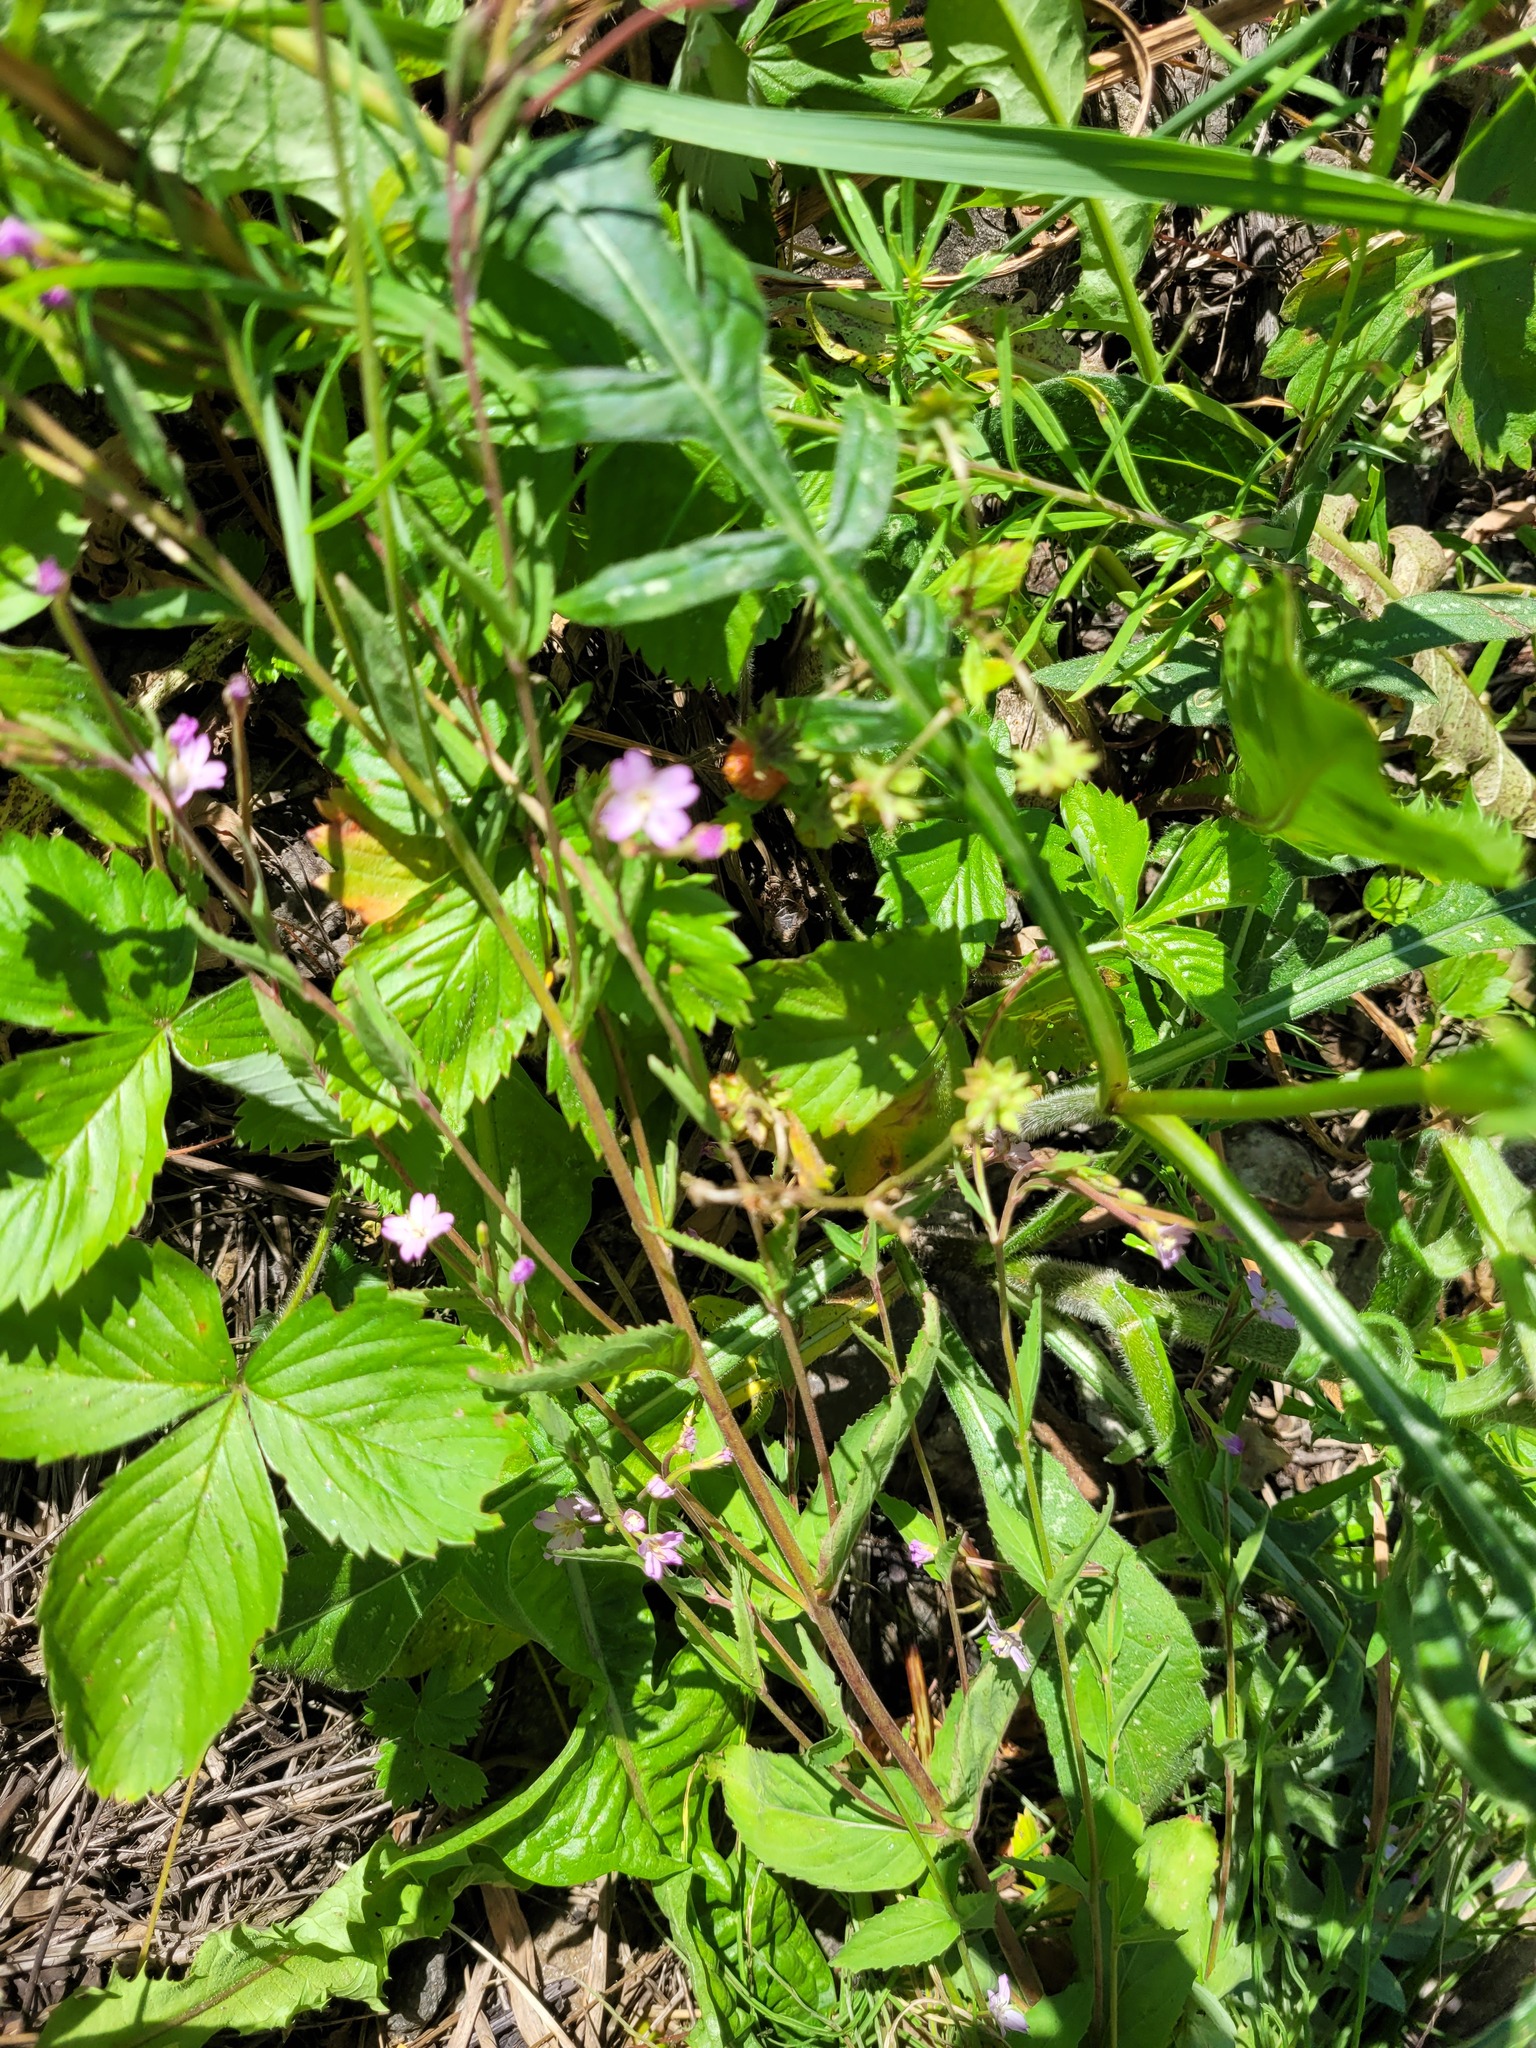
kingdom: Plantae
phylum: Tracheophyta
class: Magnoliopsida
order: Myrtales
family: Onagraceae
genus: Epilobium
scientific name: Epilobium montanum
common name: Broad-leaved willowherb
